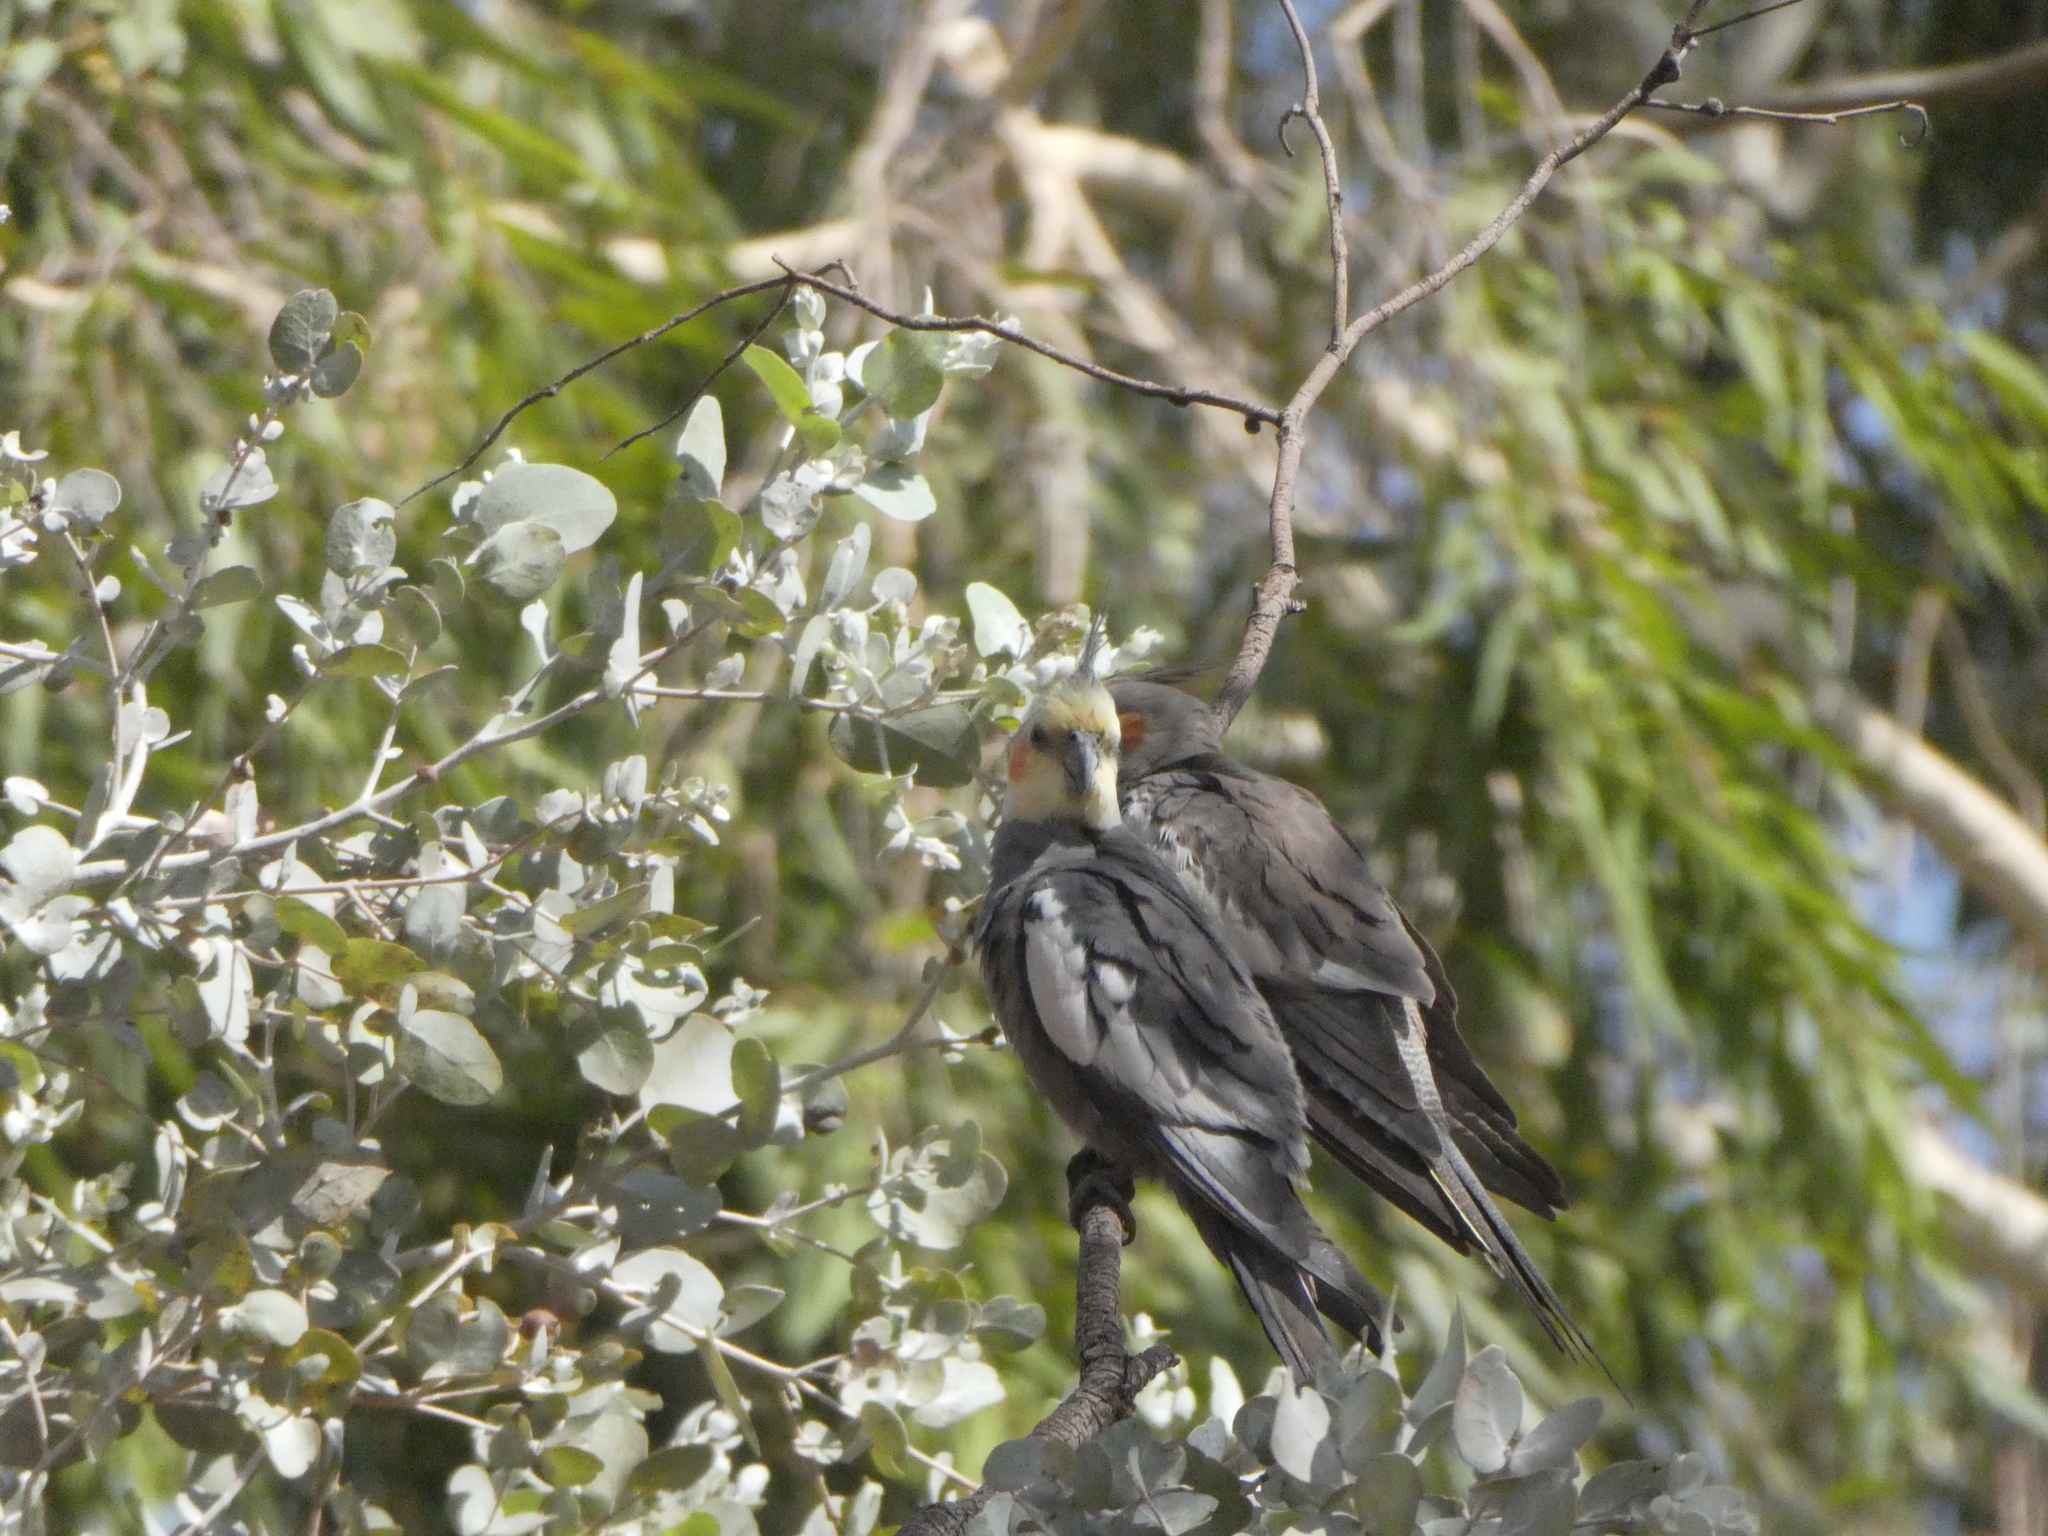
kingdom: Animalia
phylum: Chordata
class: Aves
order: Psittaciformes
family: Psittacidae
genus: Nymphicus
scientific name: Nymphicus hollandicus
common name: Cockatiel
